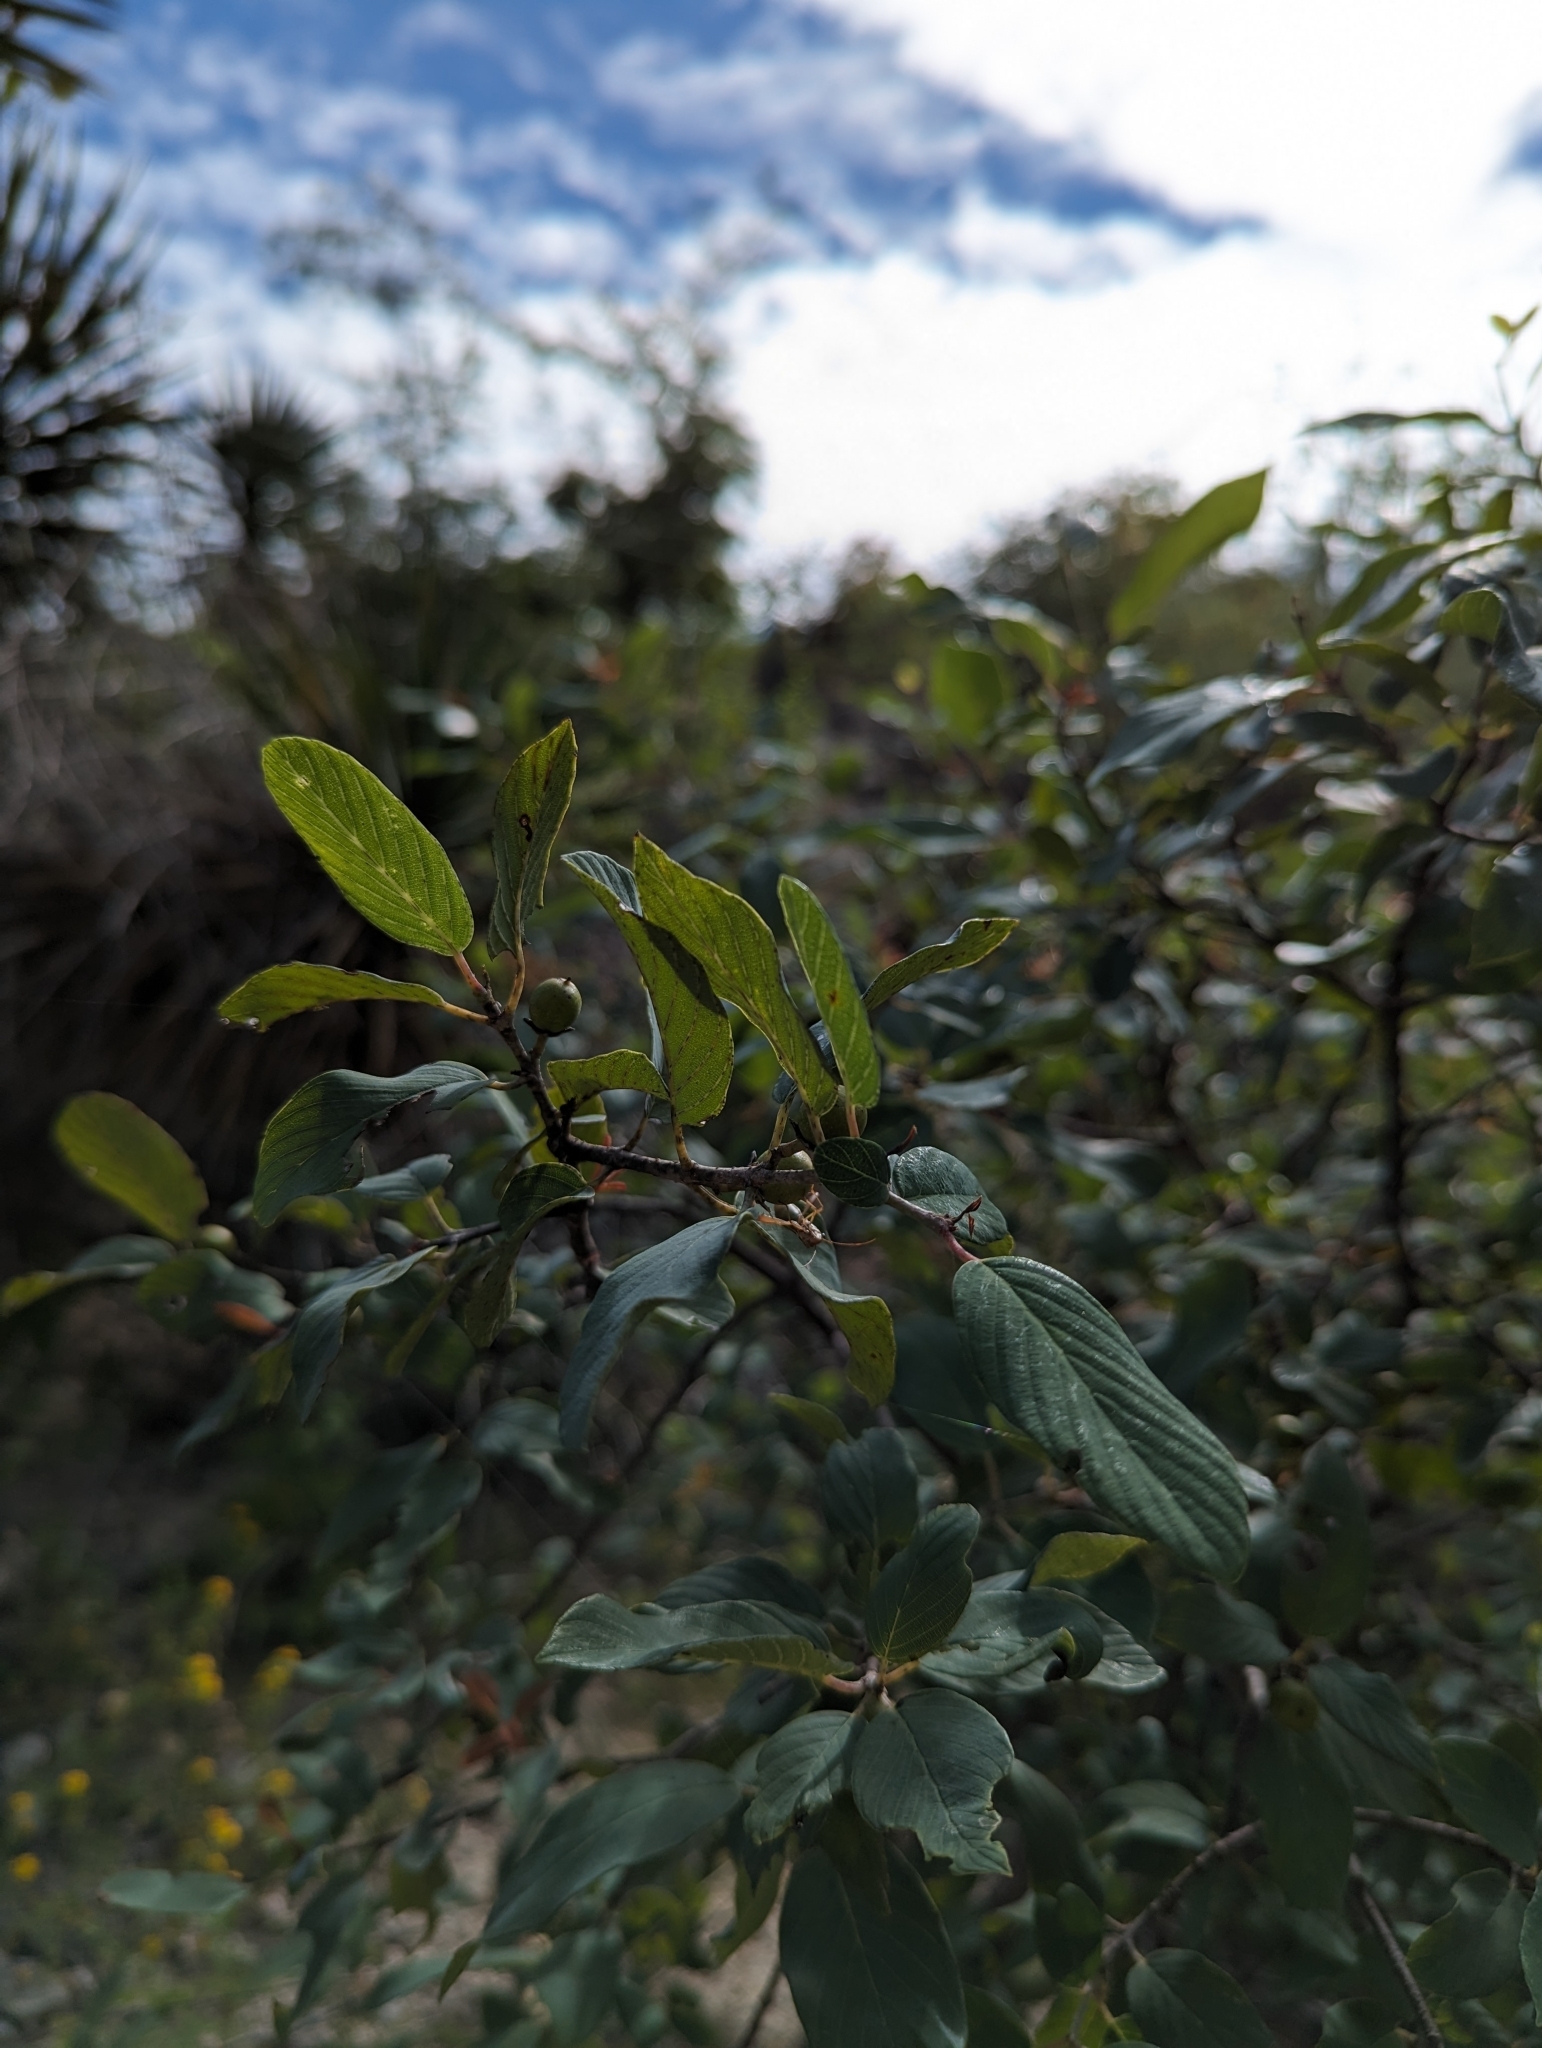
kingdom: Plantae
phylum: Tracheophyta
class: Magnoliopsida
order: Rosales
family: Rhamnaceae
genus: Karwinskia
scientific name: Karwinskia humboldtiana
